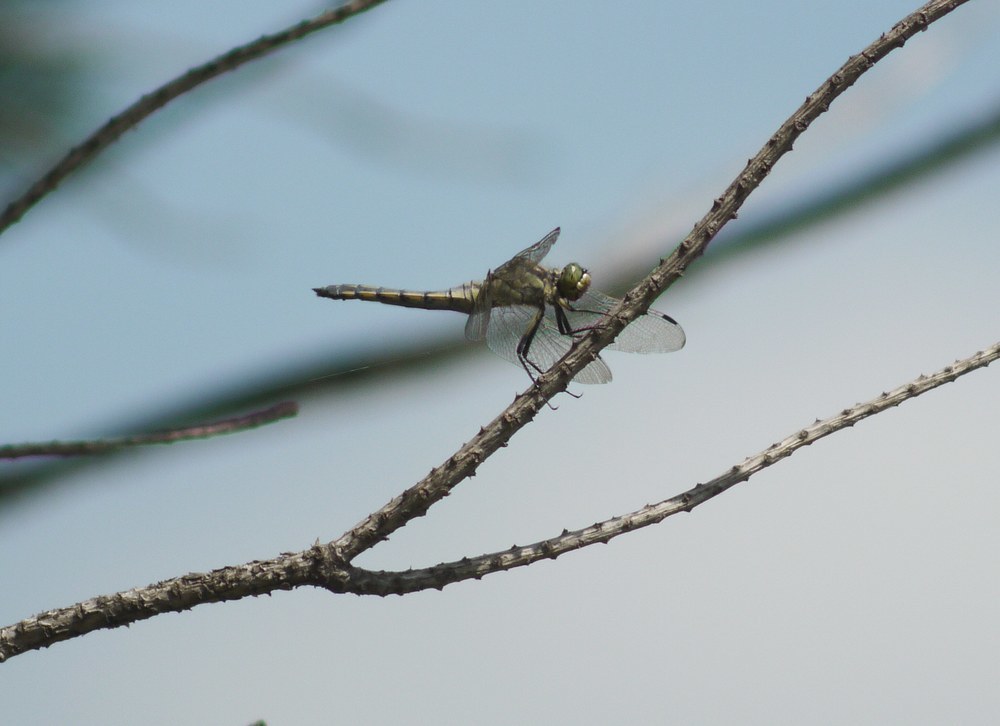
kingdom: Animalia
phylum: Arthropoda
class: Insecta
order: Odonata
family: Libellulidae
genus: Orthetrum
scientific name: Orthetrum cancellatum
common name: Black-tailed skimmer
